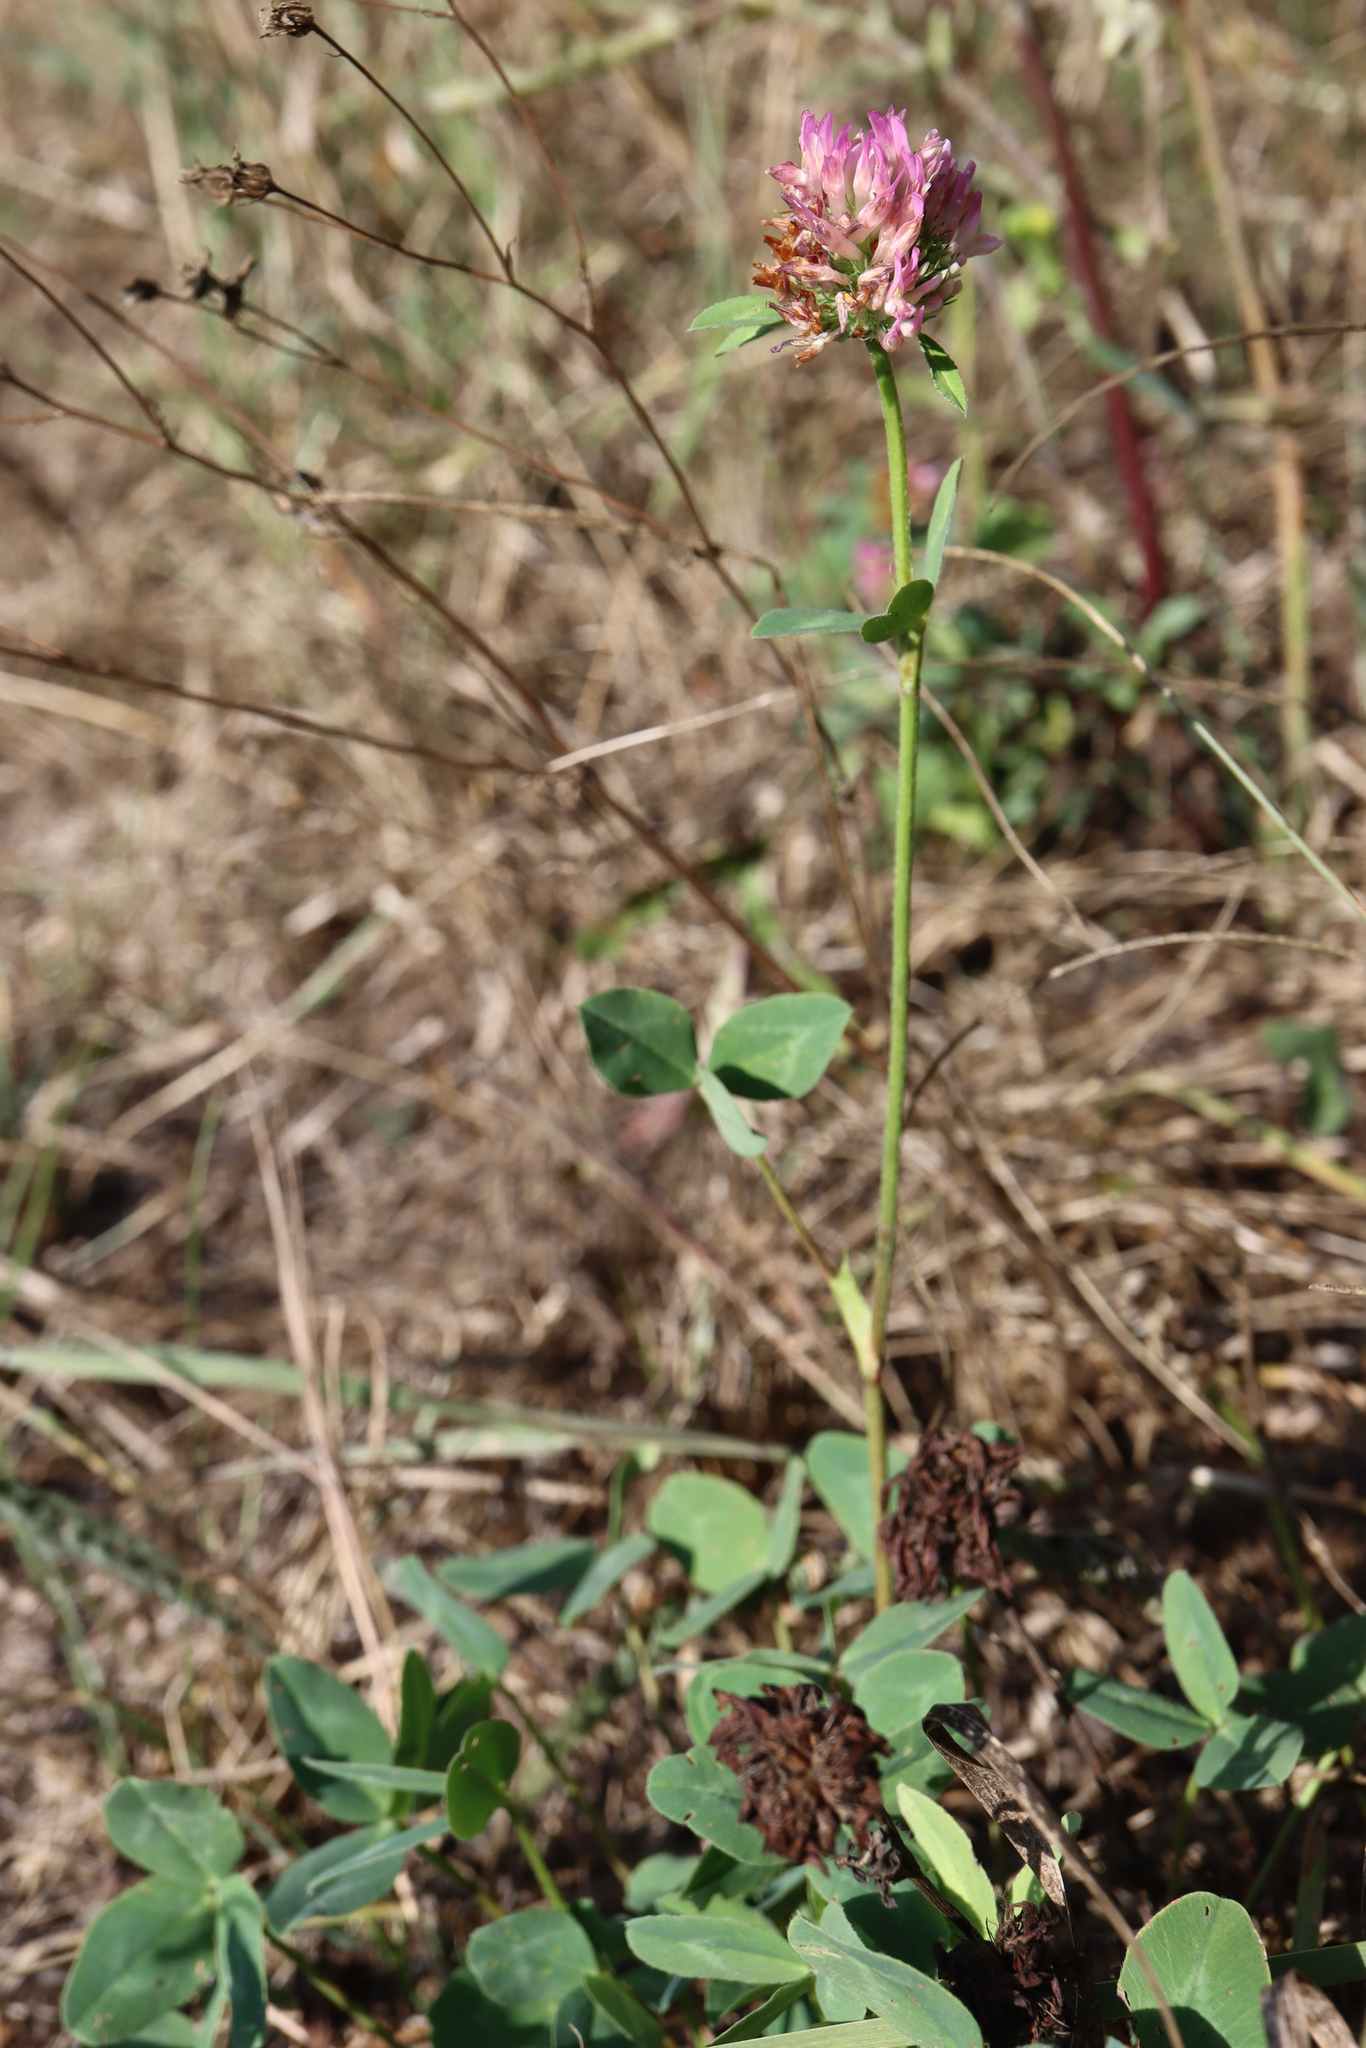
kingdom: Plantae
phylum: Tracheophyta
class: Magnoliopsida
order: Fabales
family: Fabaceae
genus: Trifolium
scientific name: Trifolium pratense
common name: Red clover
